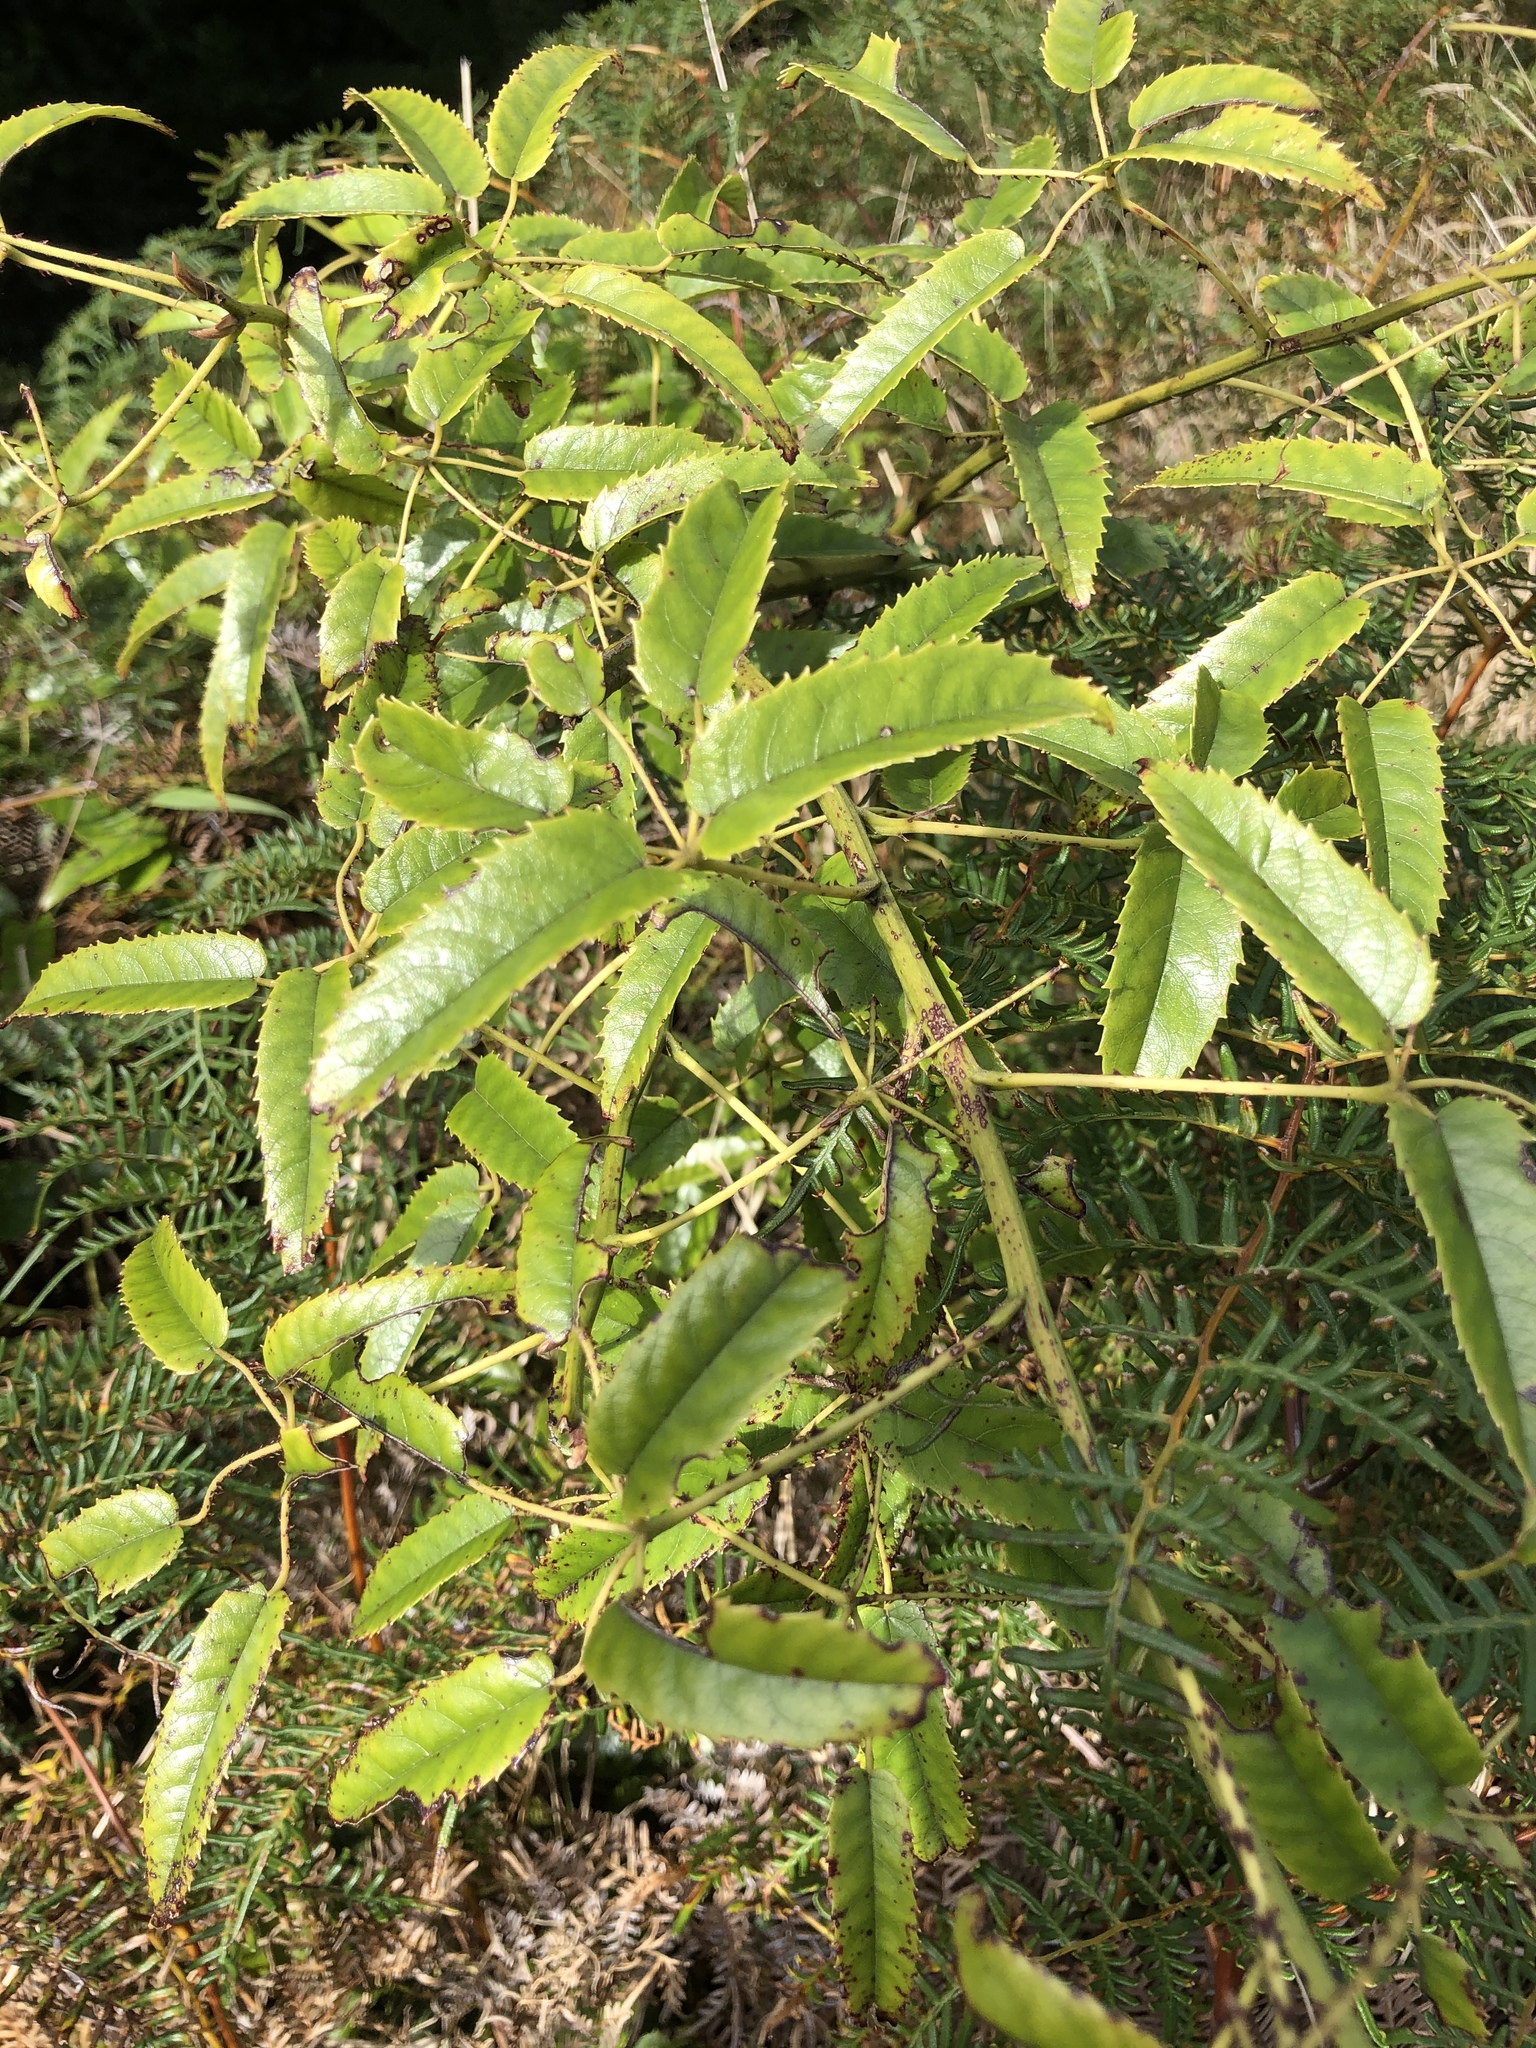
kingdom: Plantae
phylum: Tracheophyta
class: Magnoliopsida
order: Rosales
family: Rosaceae
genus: Rubus
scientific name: Rubus cissoides
